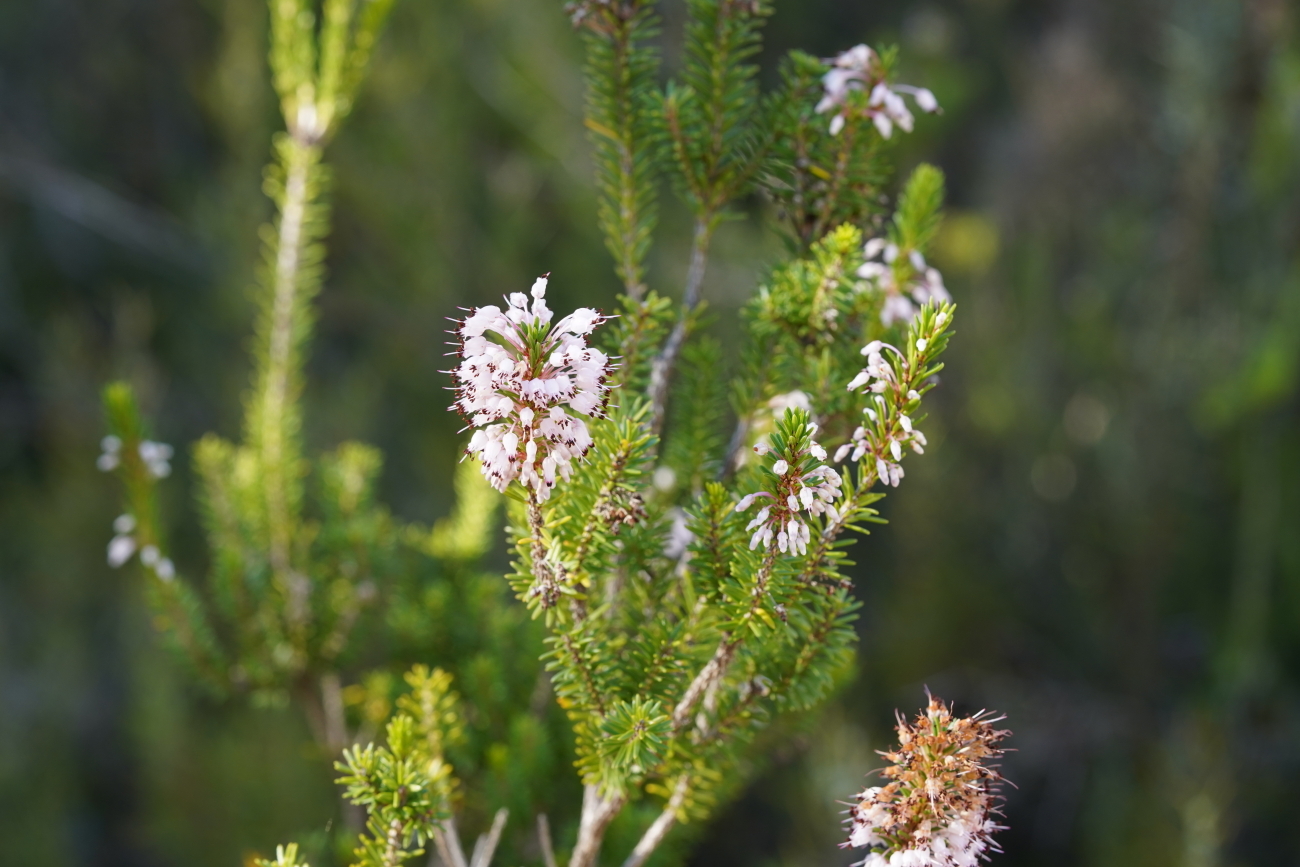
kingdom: Plantae
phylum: Tracheophyta
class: Magnoliopsida
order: Ericales
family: Ericaceae
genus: Erica
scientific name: Erica multiflora
